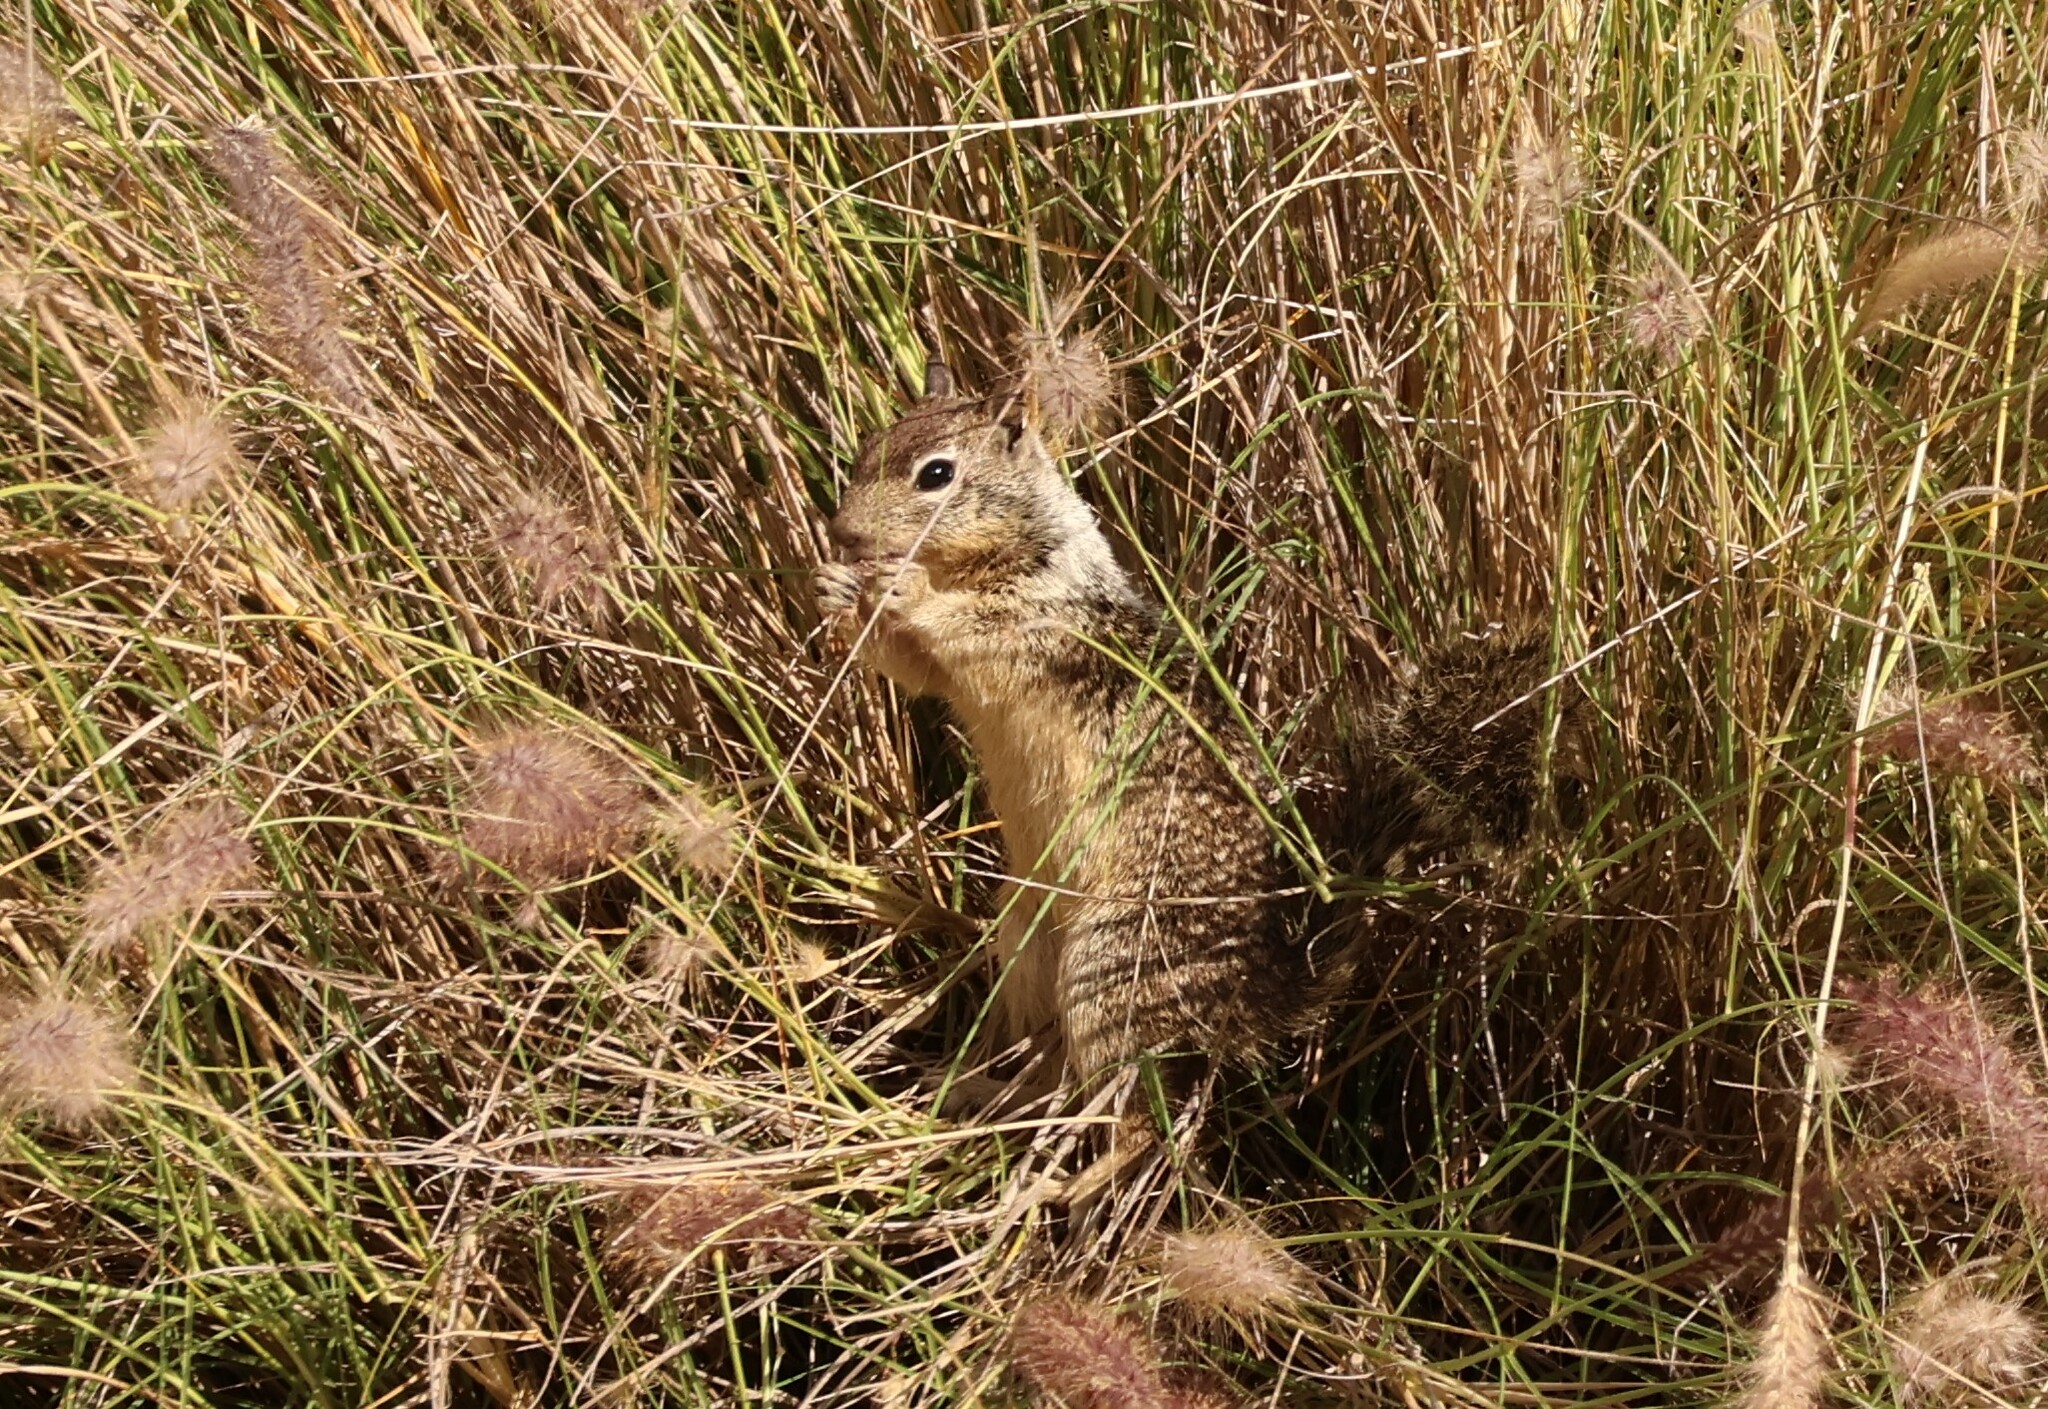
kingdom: Animalia
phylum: Chordata
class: Mammalia
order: Rodentia
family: Sciuridae
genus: Otospermophilus
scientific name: Otospermophilus beecheyi
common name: California ground squirrel
